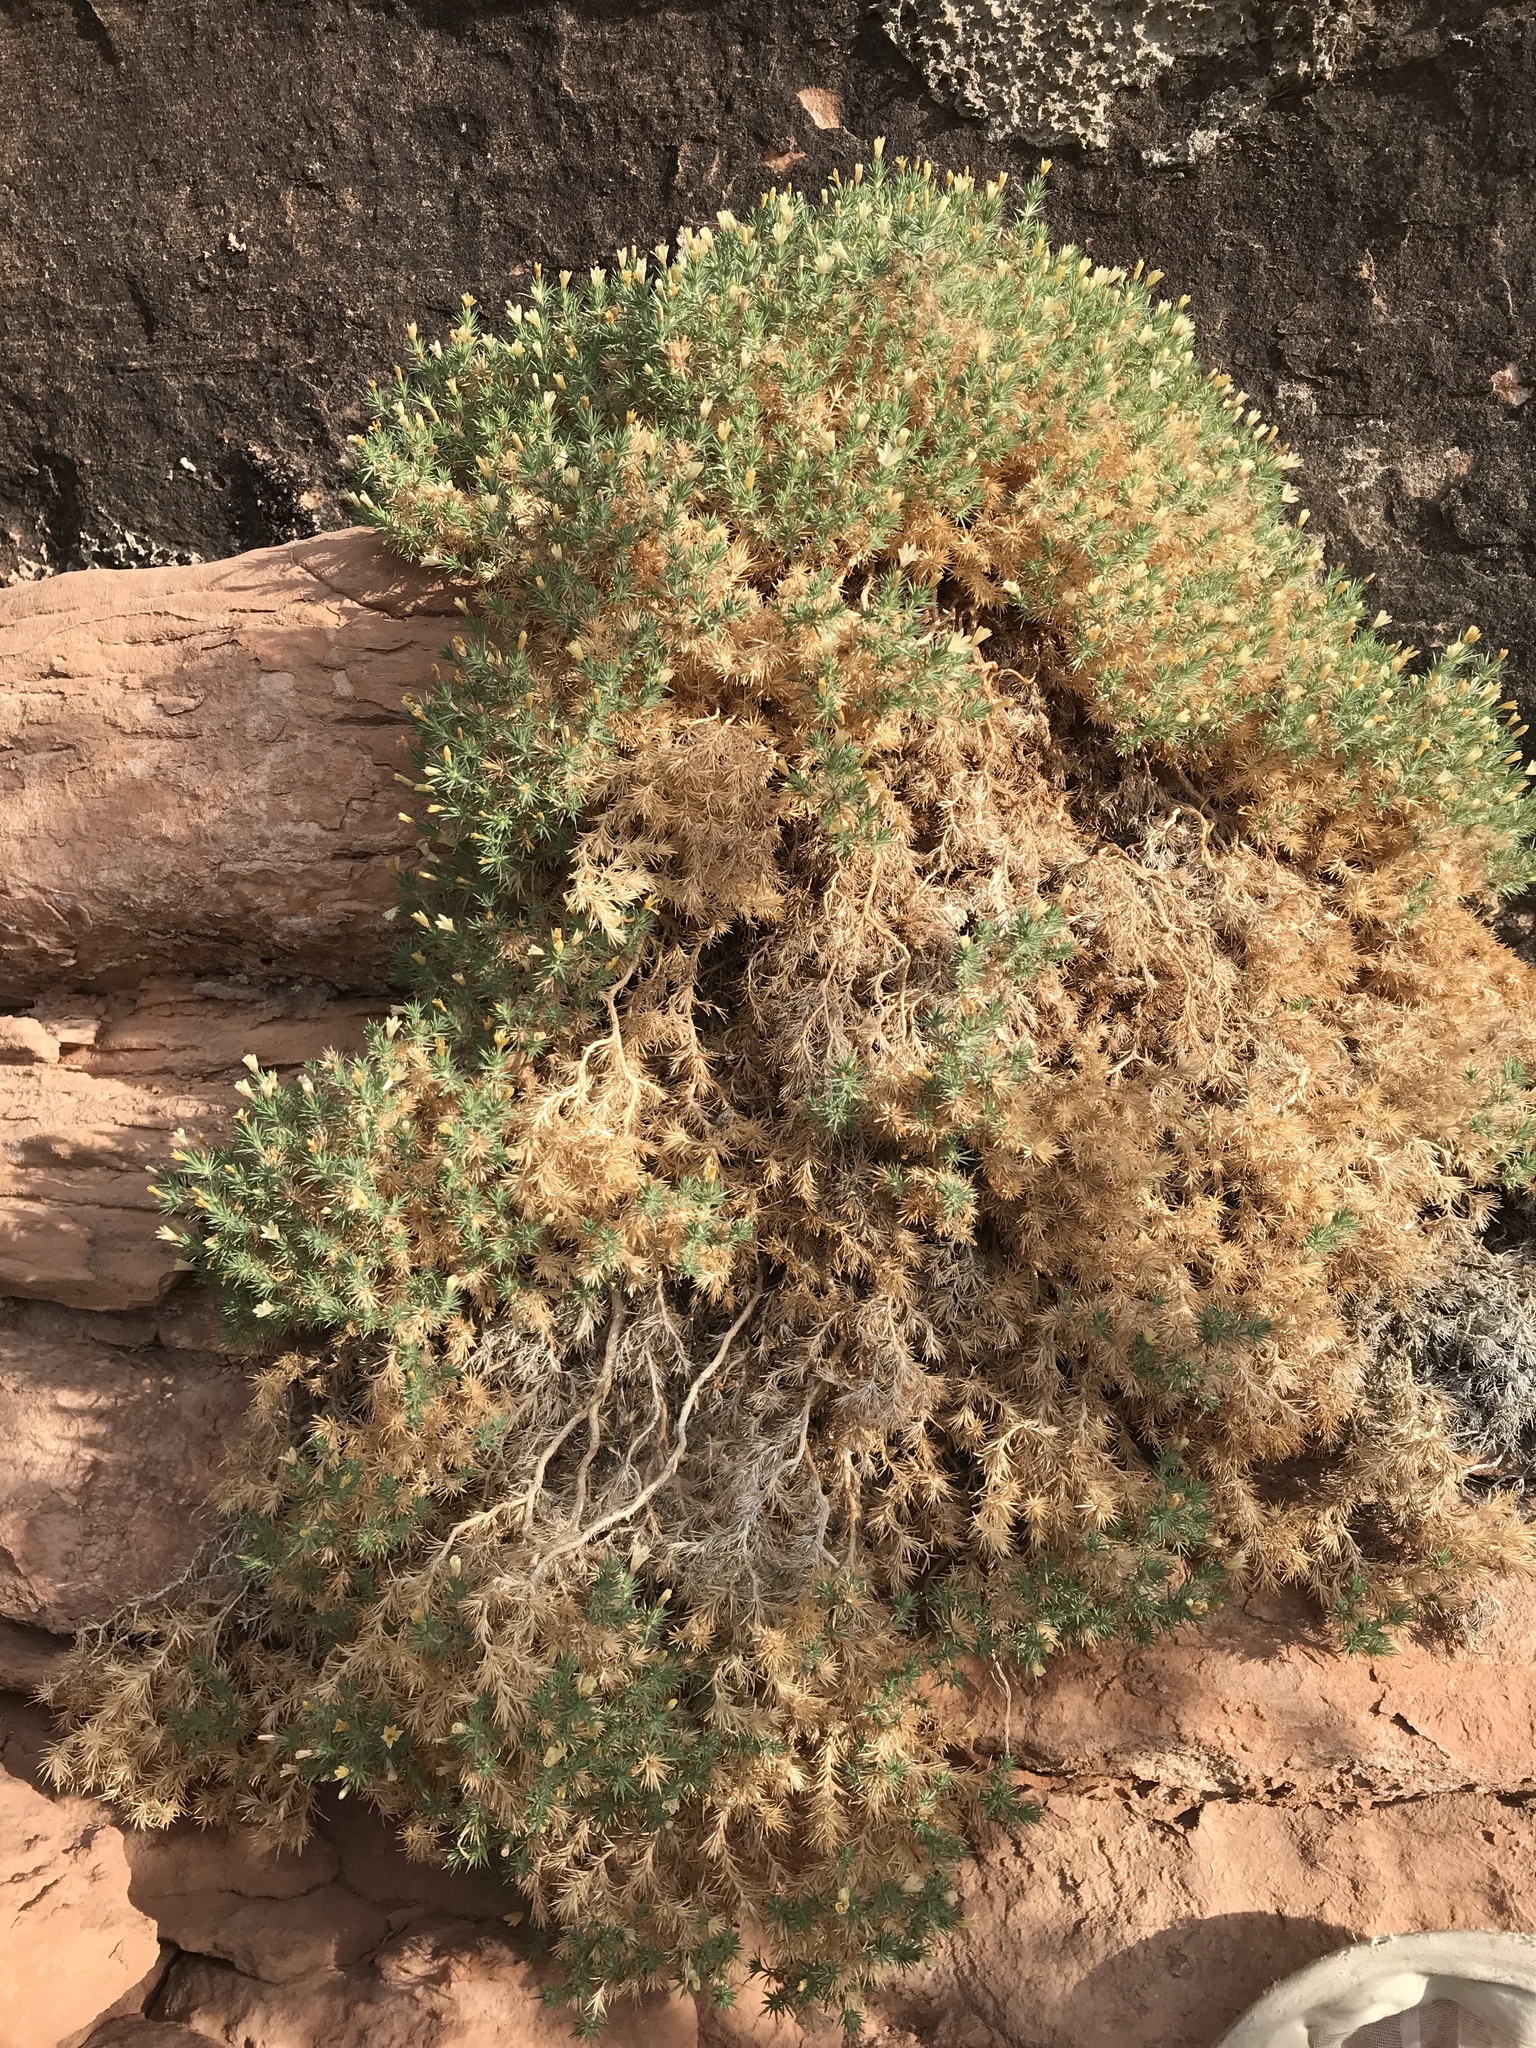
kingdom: Plantae
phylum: Tracheophyta
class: Magnoliopsida
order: Ericales
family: Polemoniaceae
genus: Linanthus
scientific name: Linanthus watsonii
